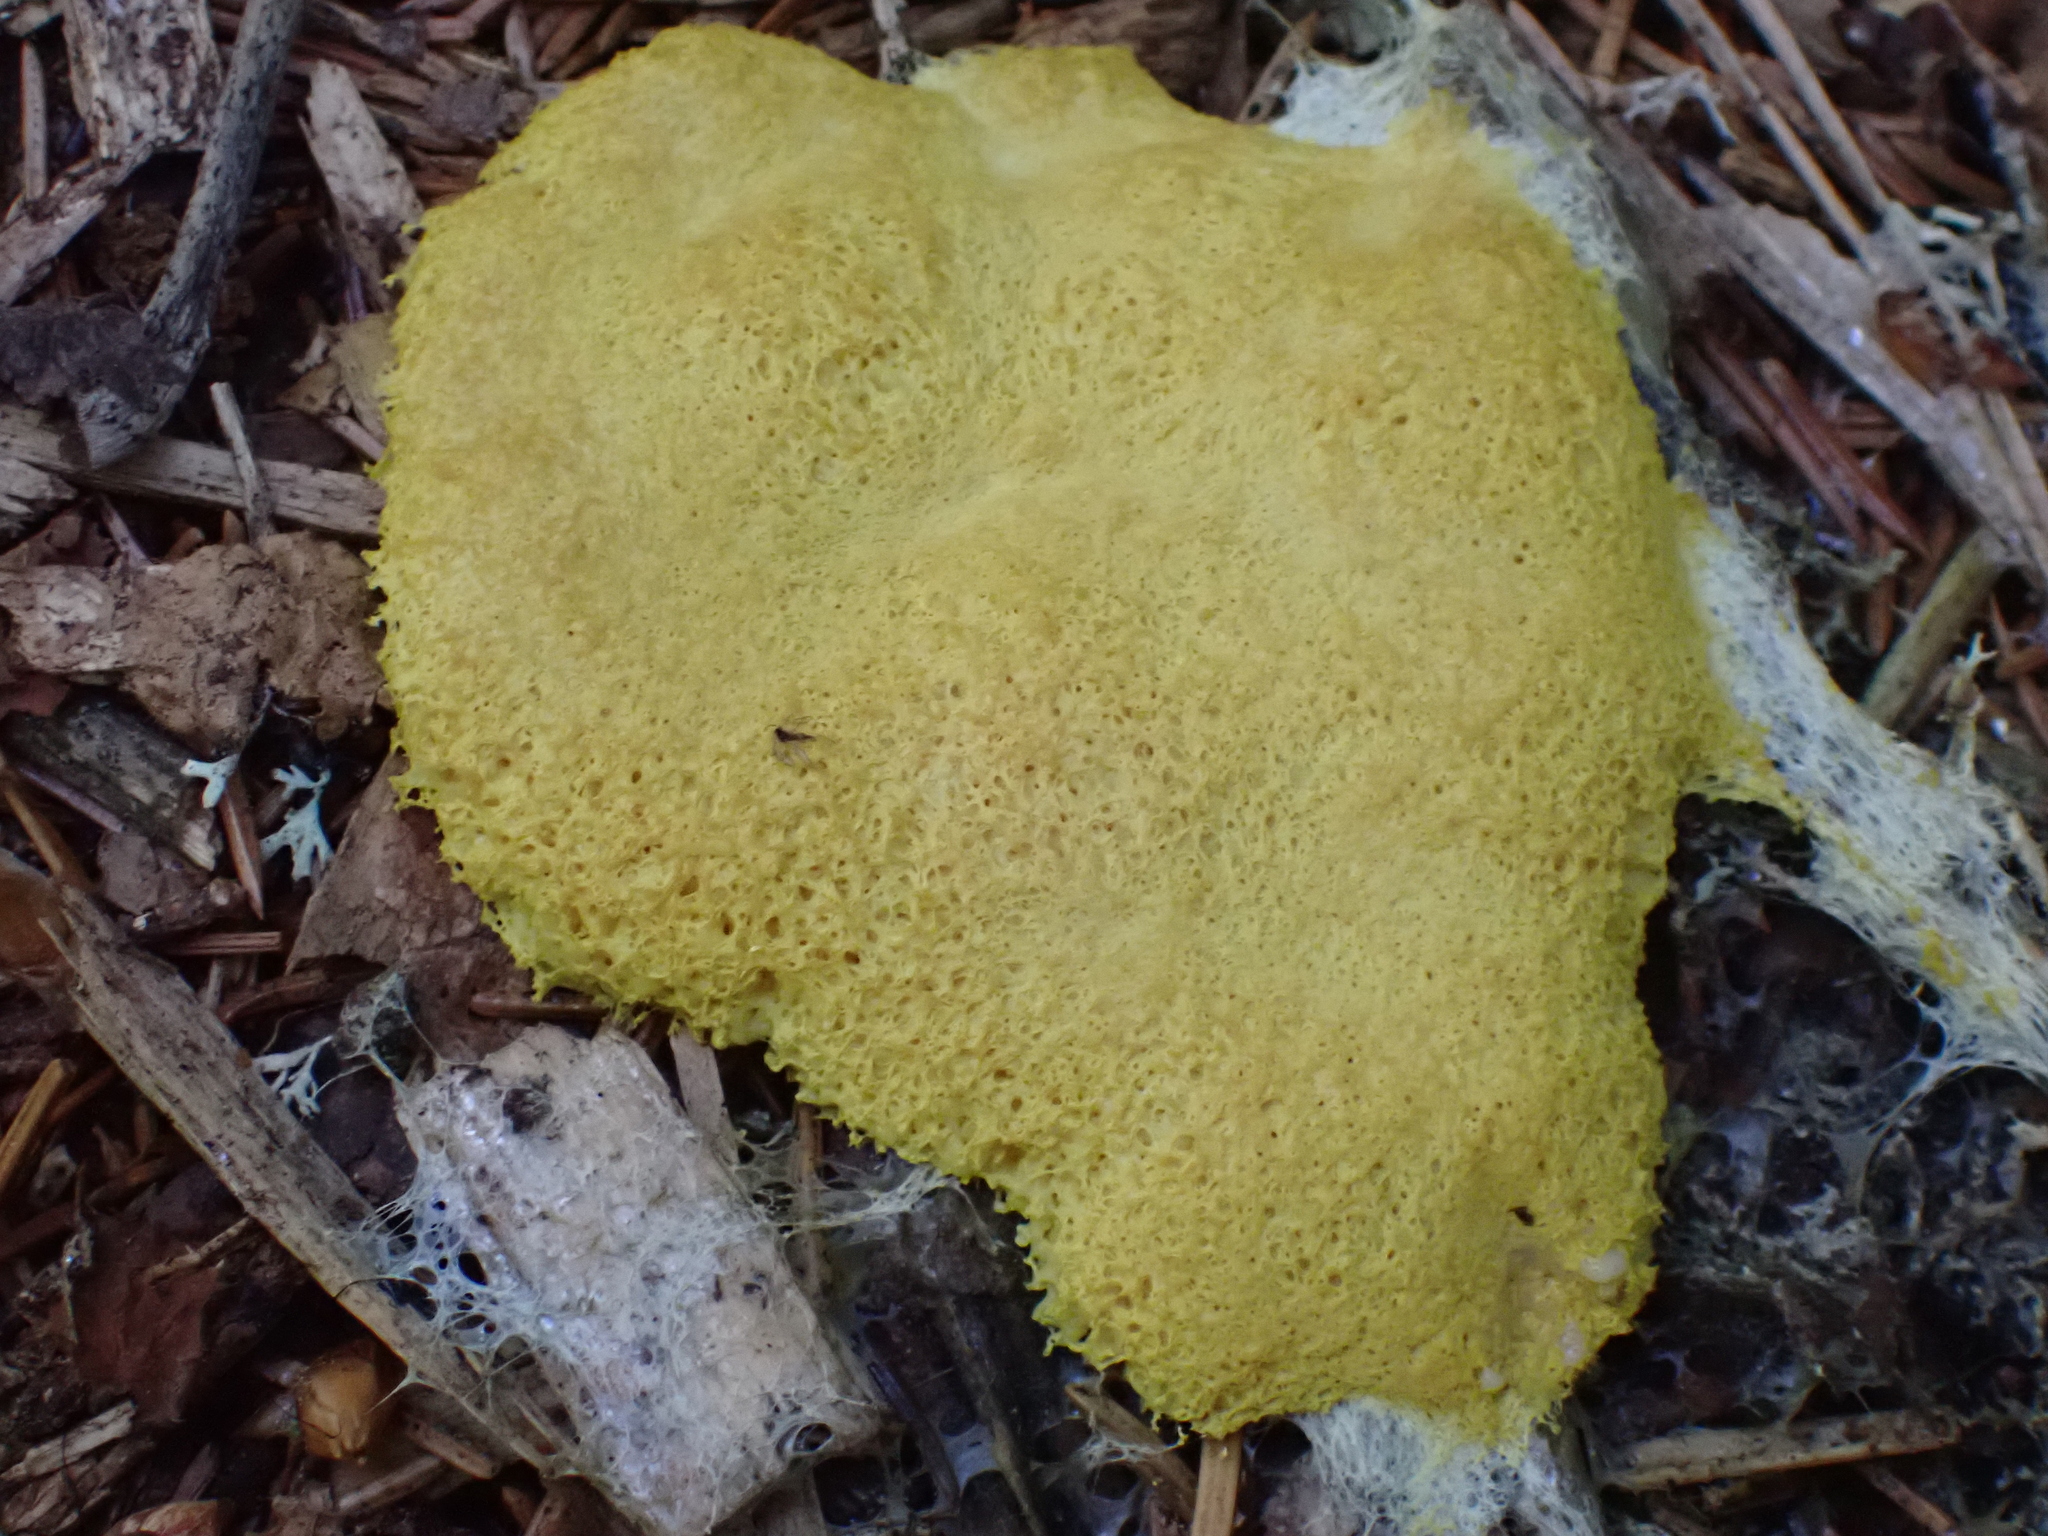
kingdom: Protozoa
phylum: Mycetozoa
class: Myxomycetes
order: Physarales
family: Physaraceae
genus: Fuligo
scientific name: Fuligo septica
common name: Dog vomit slime mold
